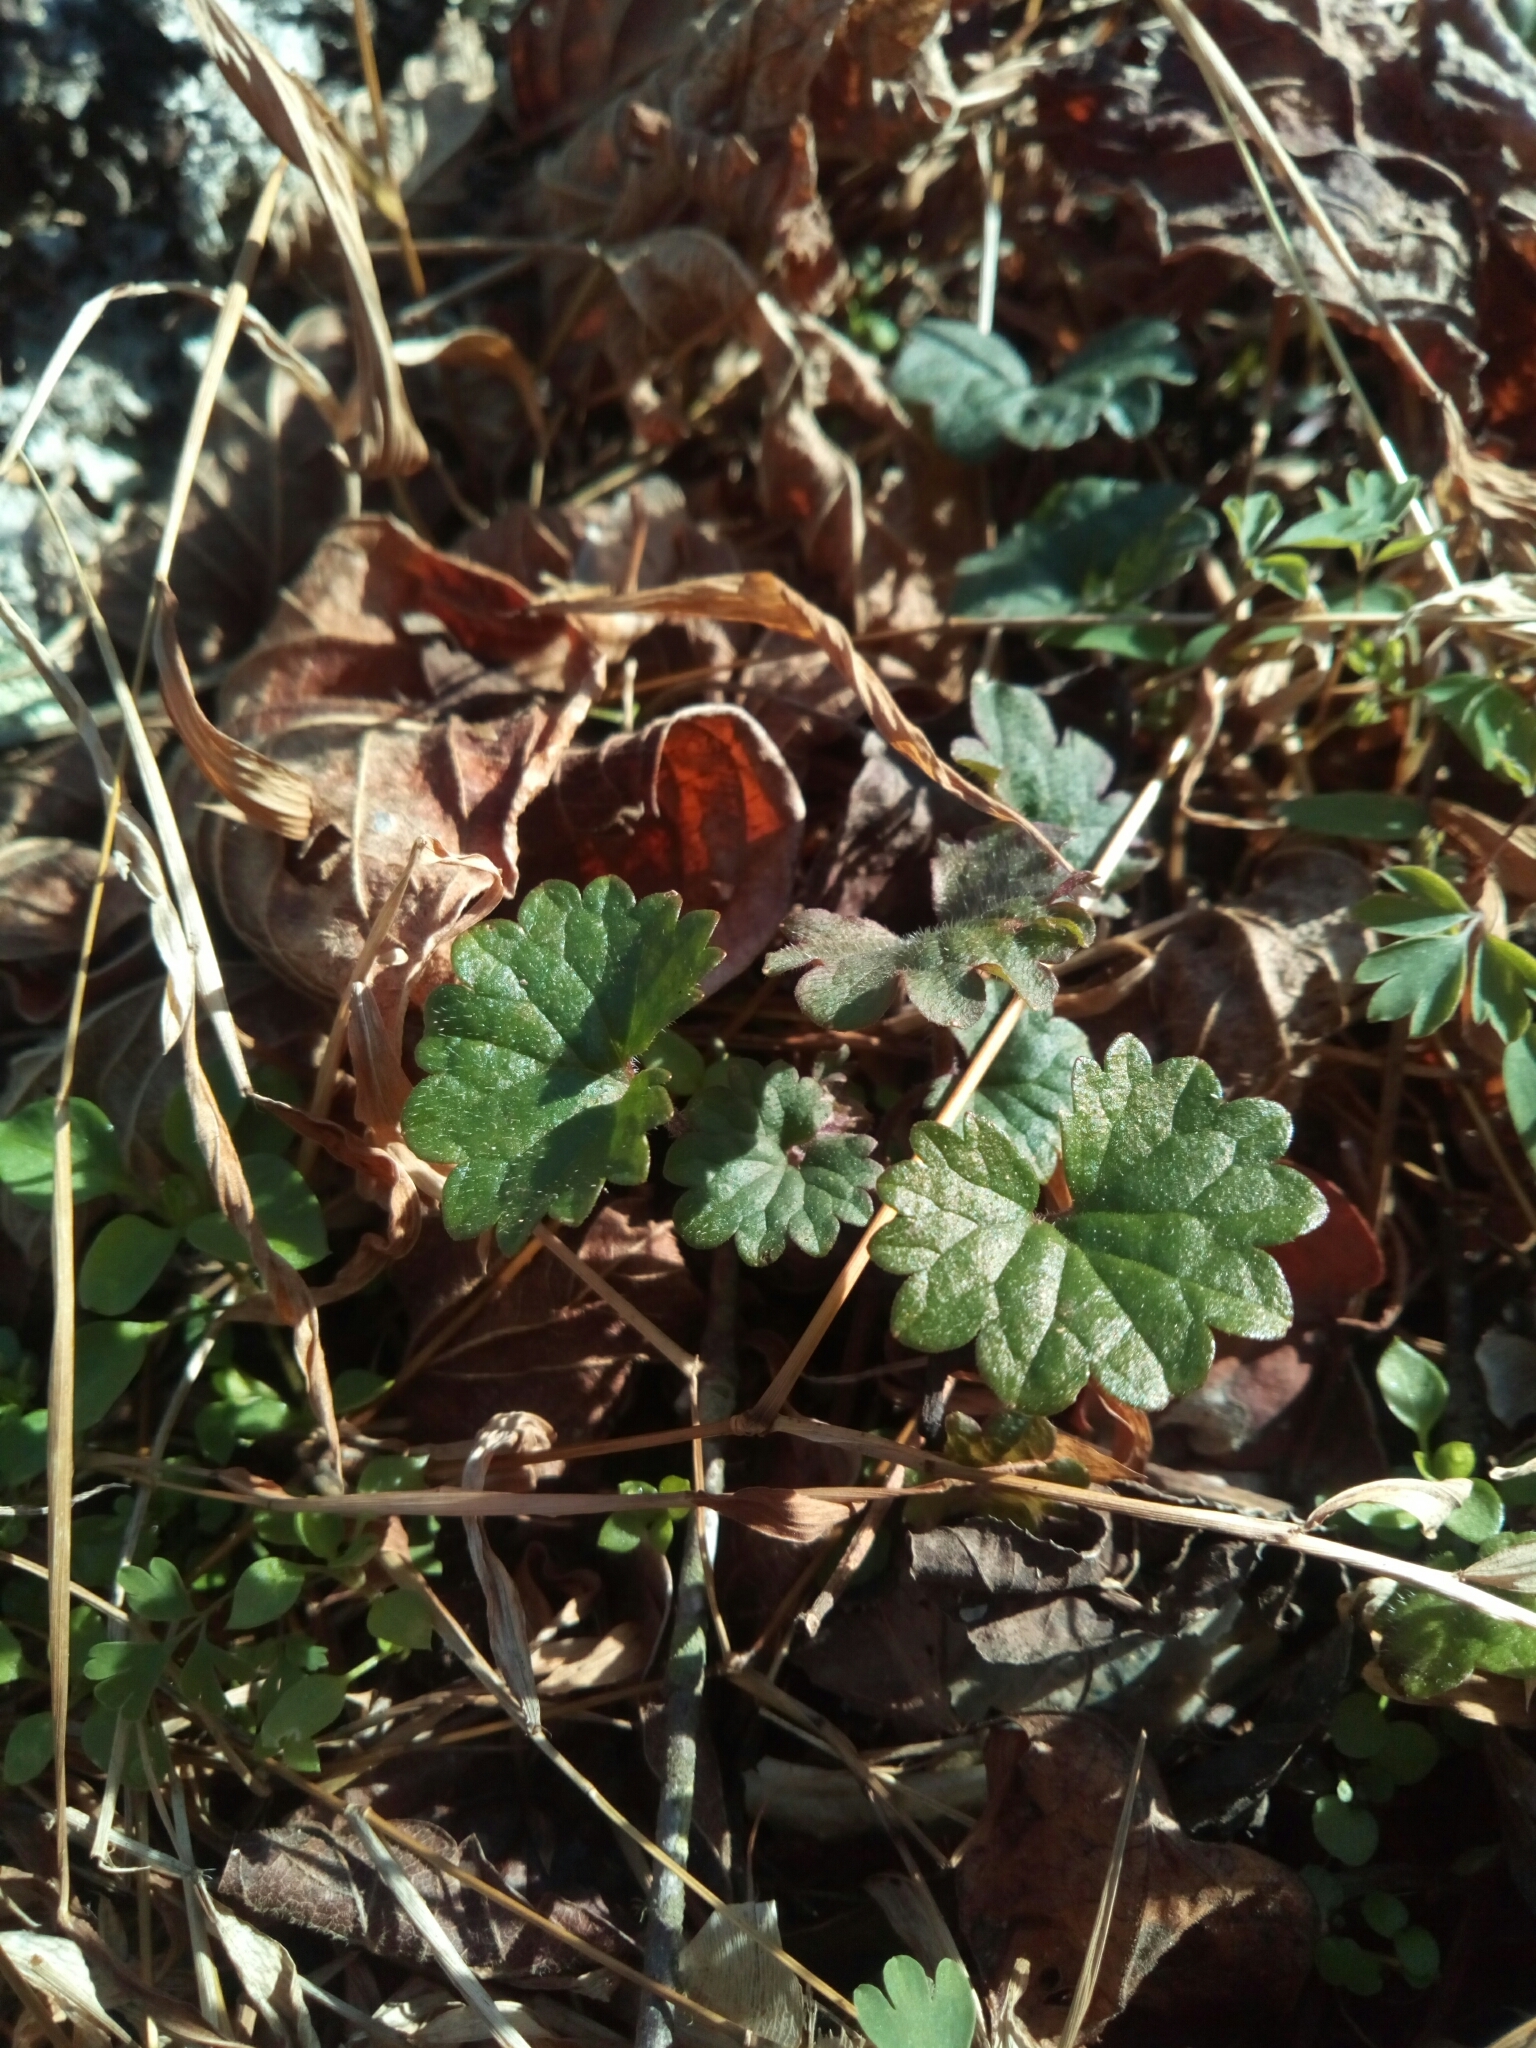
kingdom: Plantae
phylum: Tracheophyta
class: Magnoliopsida
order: Lamiales
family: Lamiaceae
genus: Glechoma
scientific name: Glechoma hederacea
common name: Ground ivy
